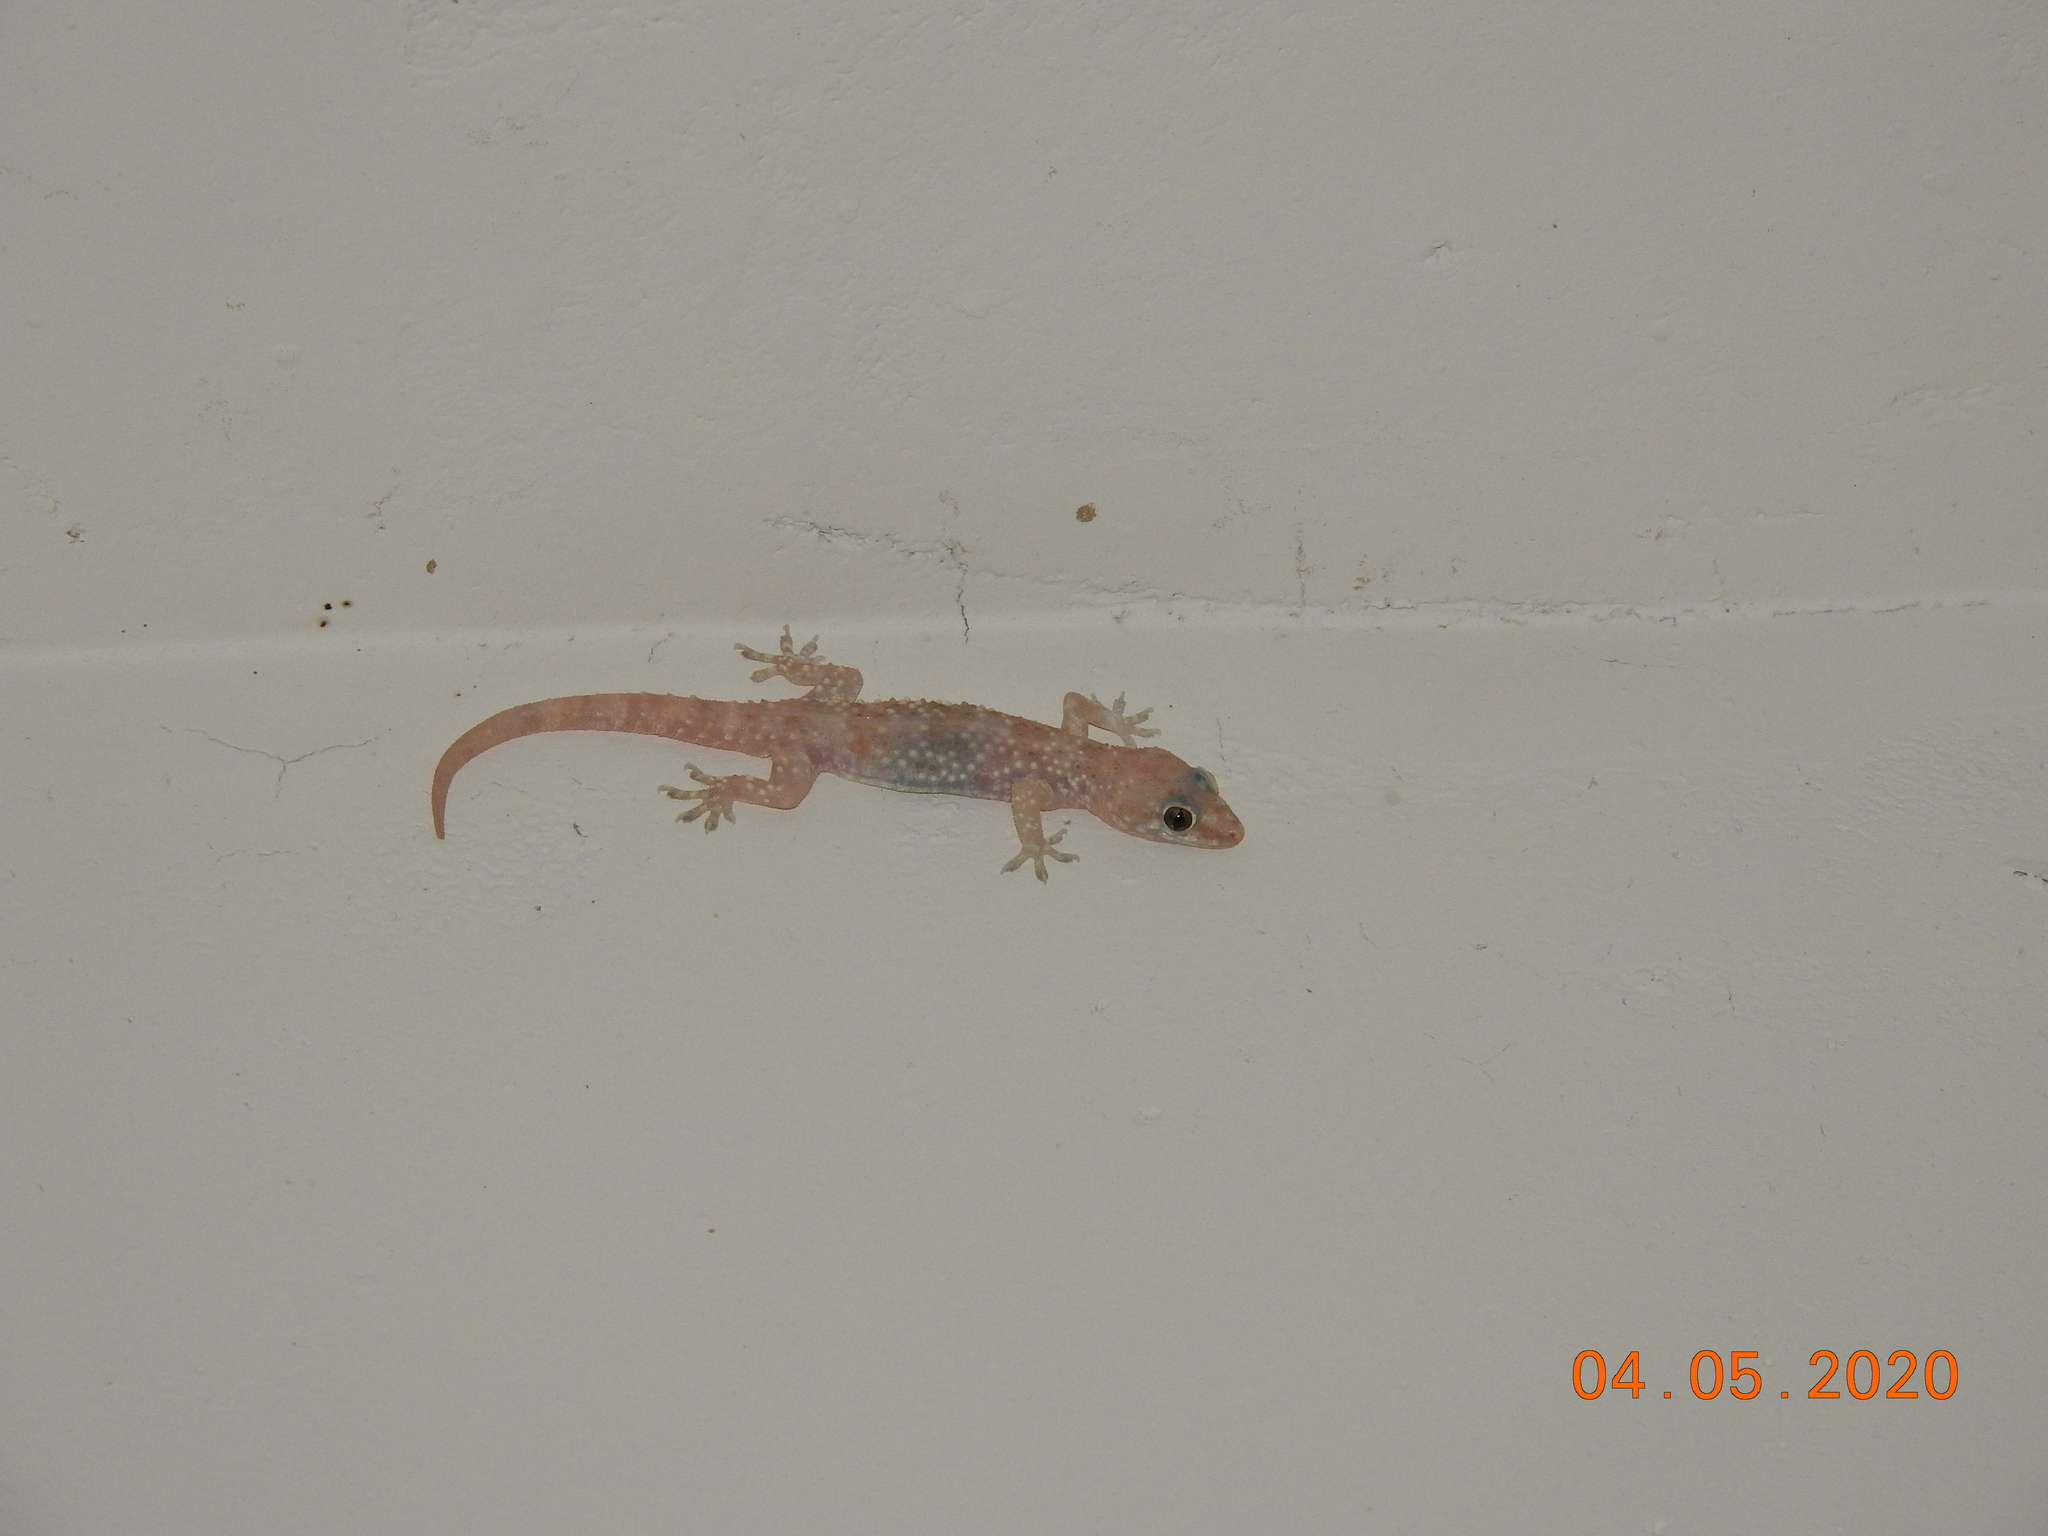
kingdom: Animalia
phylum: Chordata
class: Squamata
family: Gekkonidae
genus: Hemidactylus
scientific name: Hemidactylus turcicus
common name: Turkish gecko
